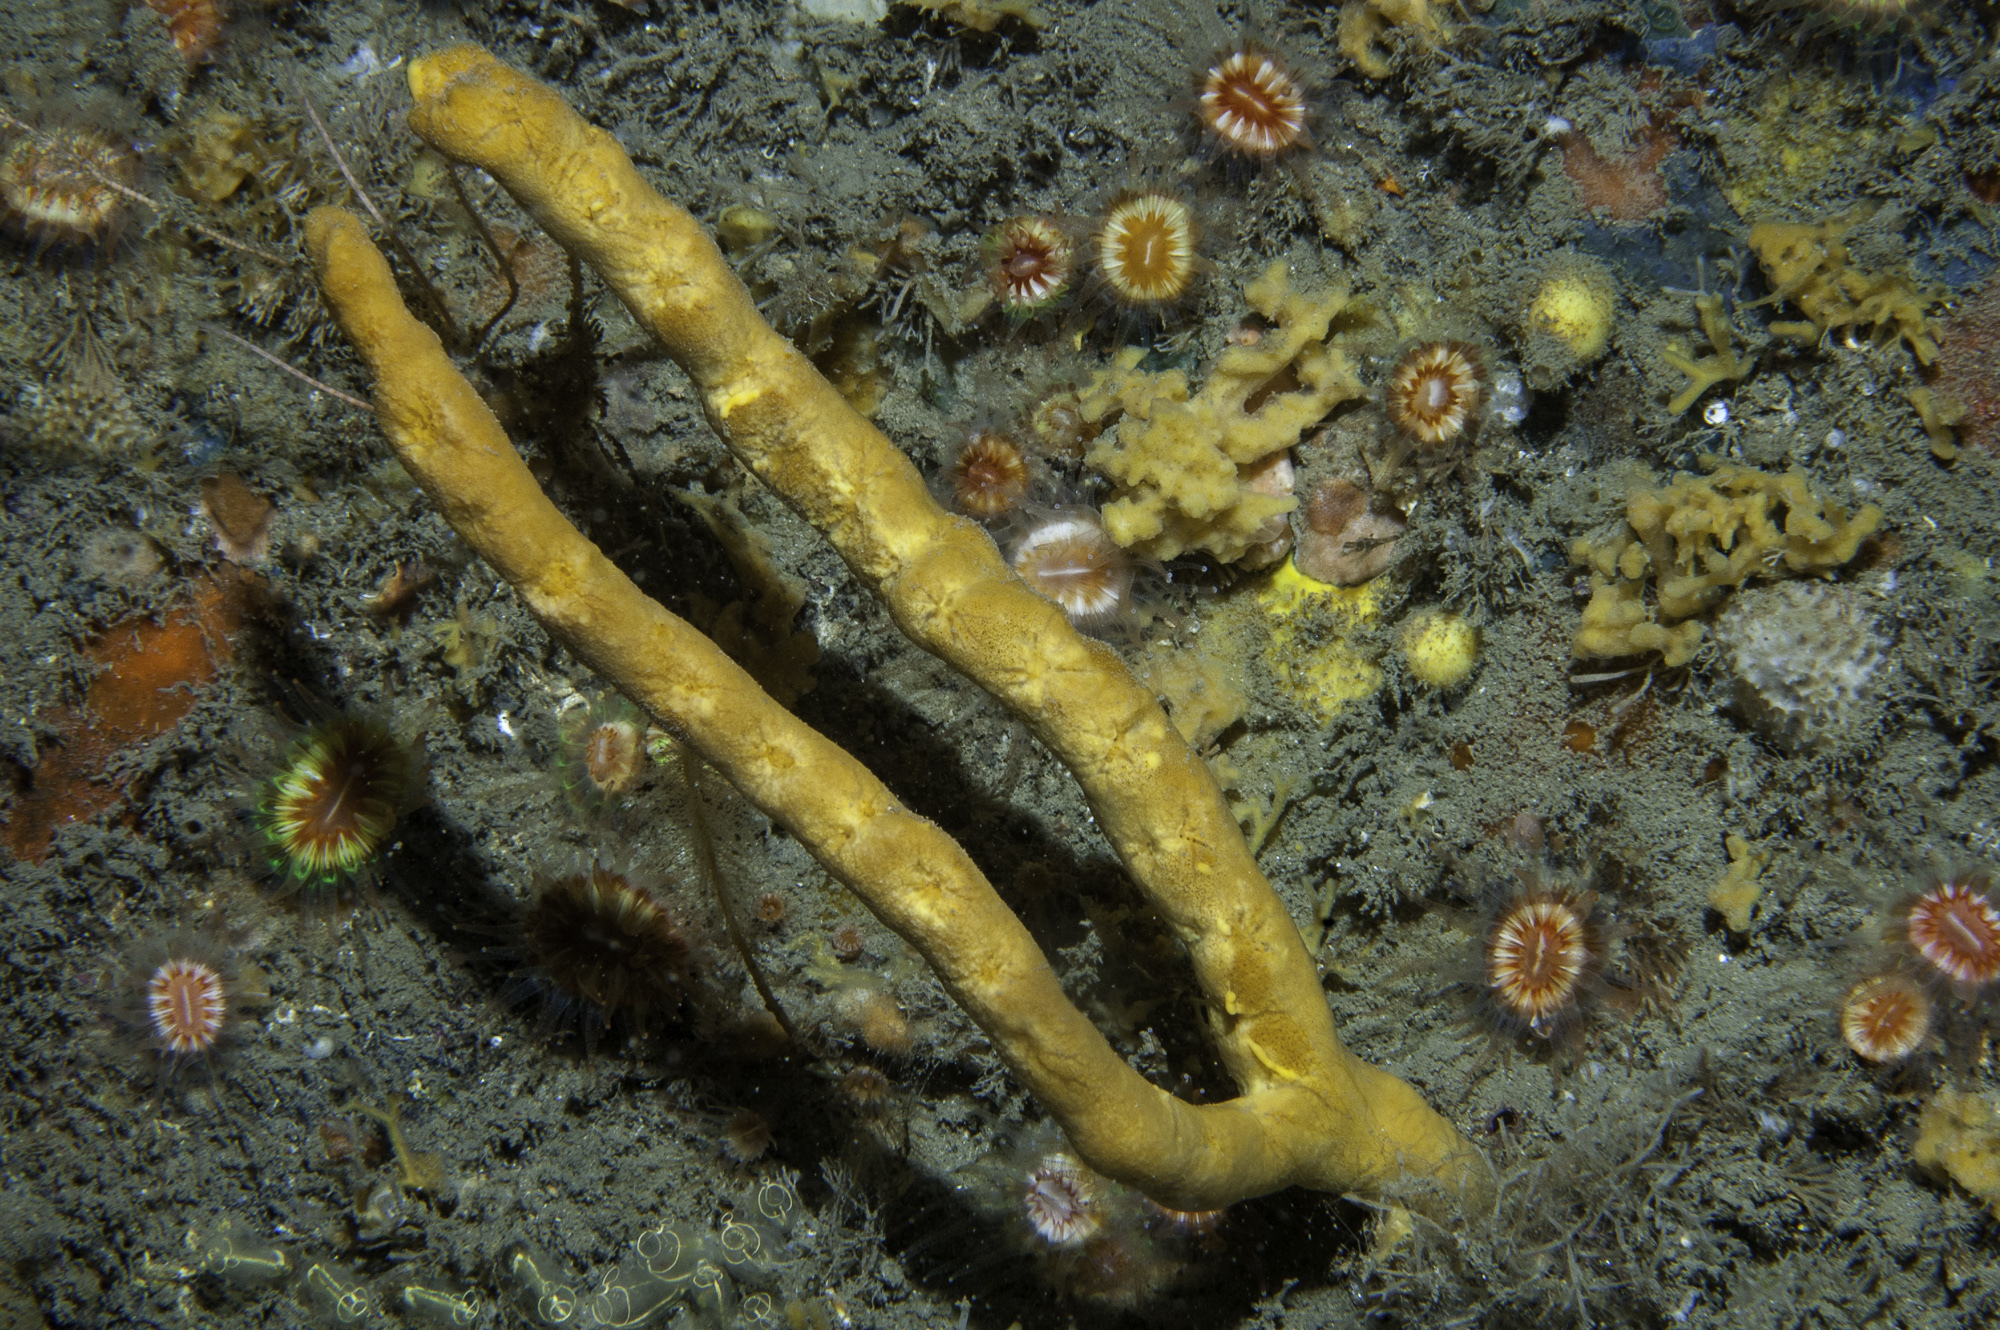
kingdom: Animalia
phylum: Porifera
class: Demospongiae
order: Axinellida
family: Axinellidae
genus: Axinella
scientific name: Axinella dissimilis
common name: Branching sponge
